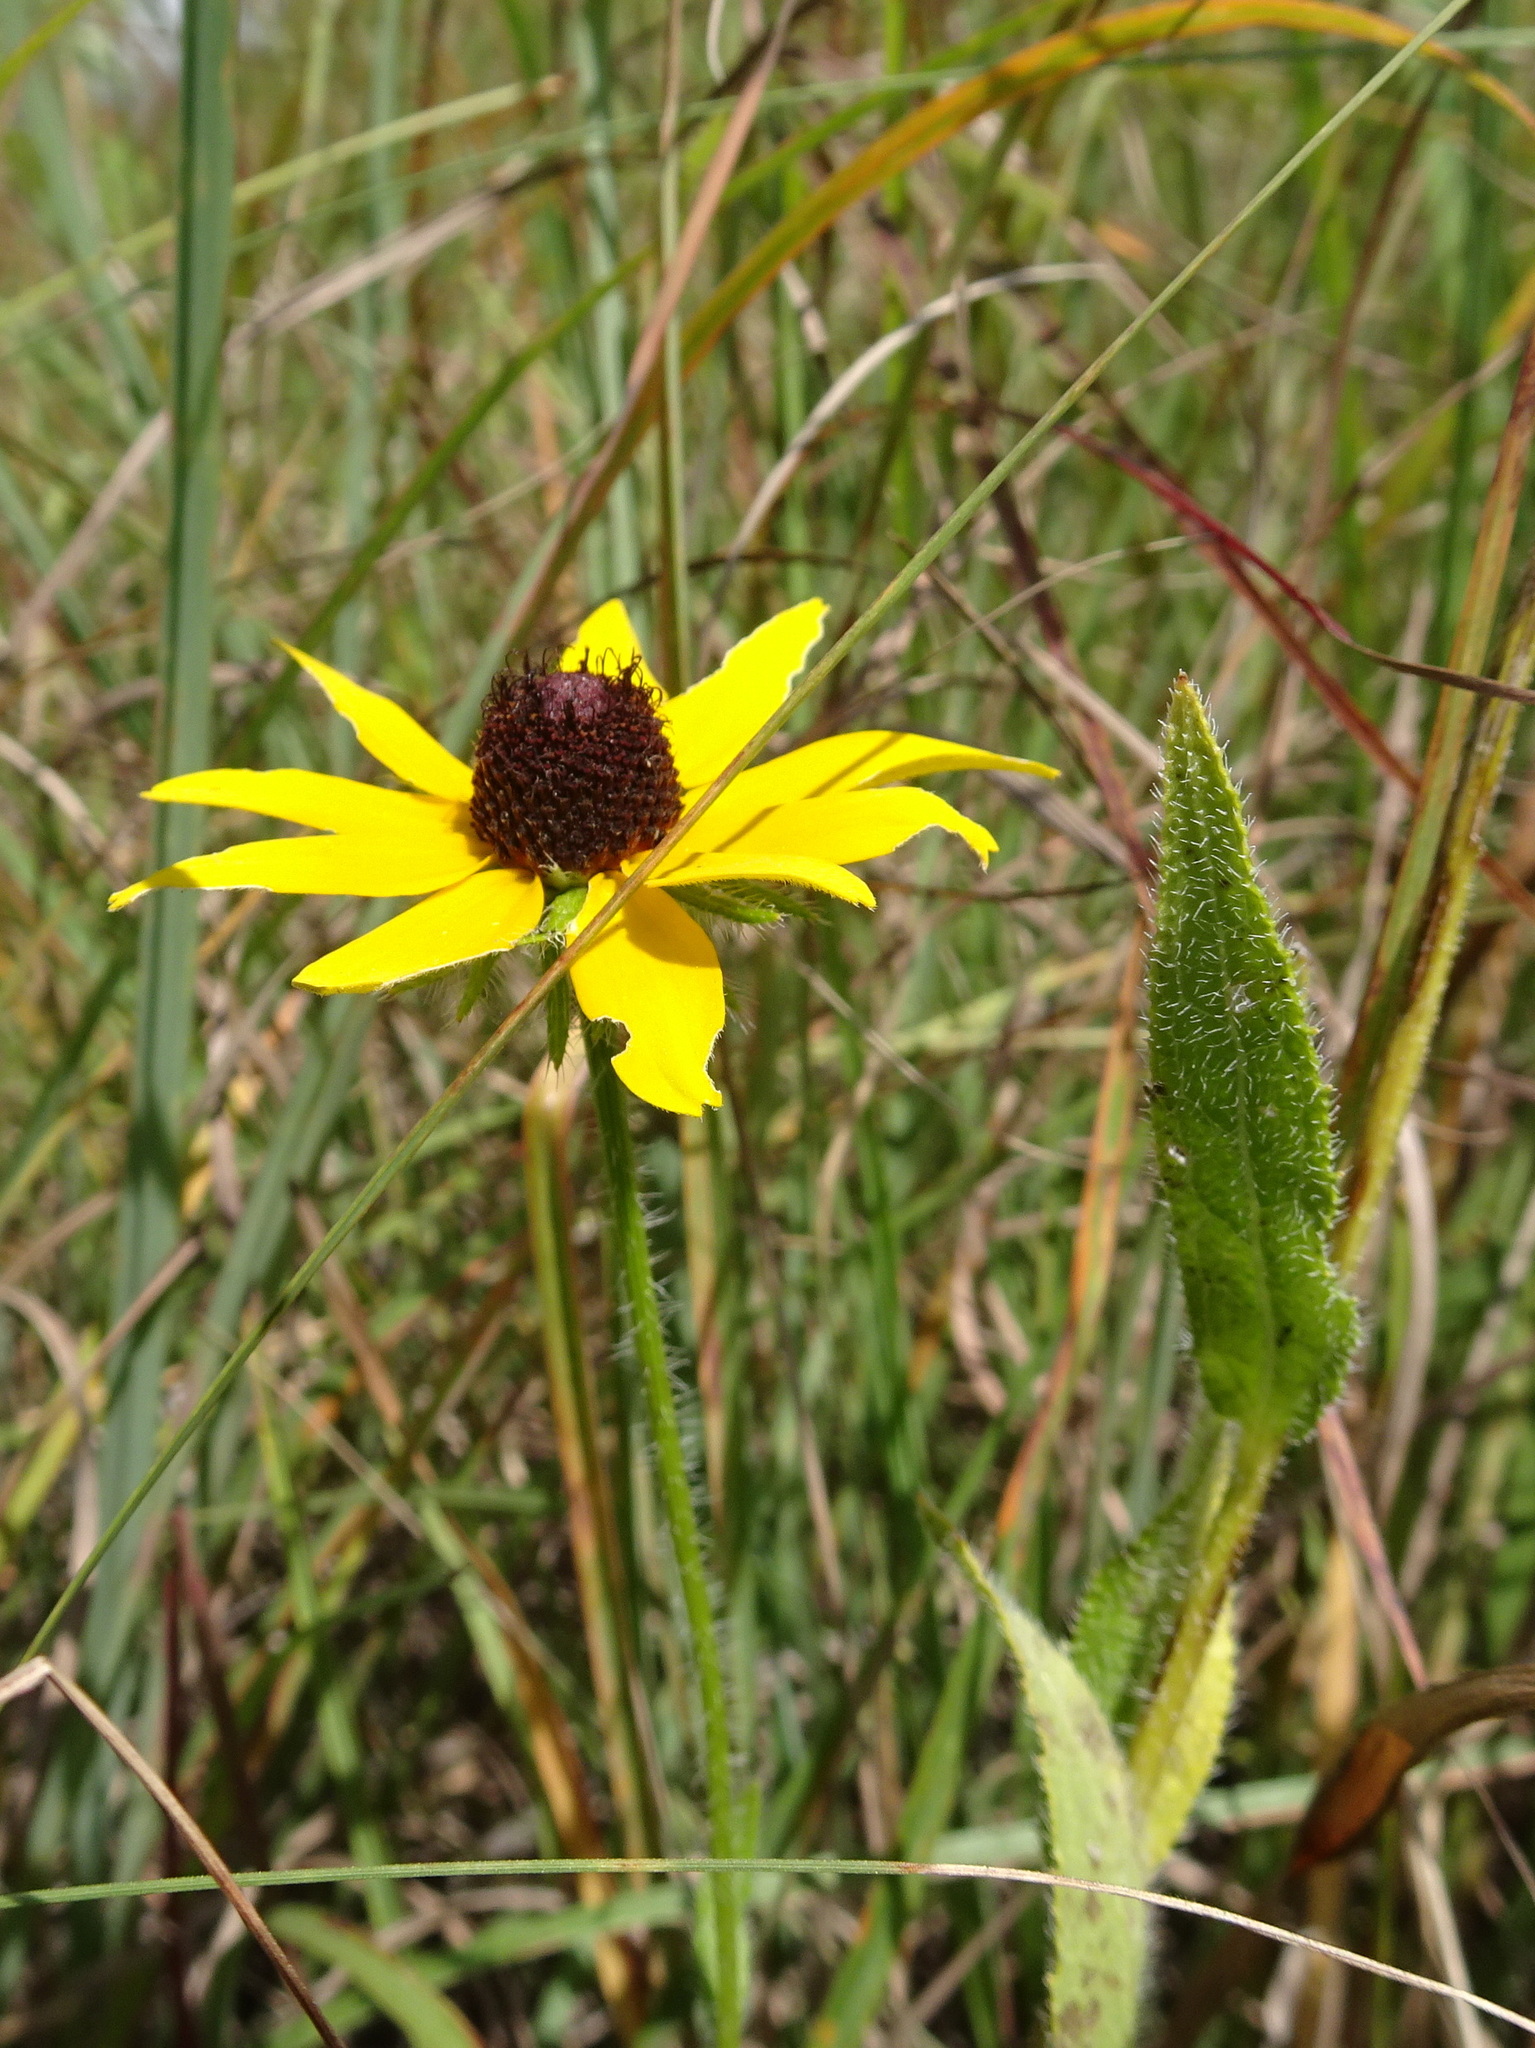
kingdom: Plantae
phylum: Tracheophyta
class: Magnoliopsida
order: Asterales
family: Asteraceae
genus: Rudbeckia
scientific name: Rudbeckia hirta
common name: Black-eyed-susan
